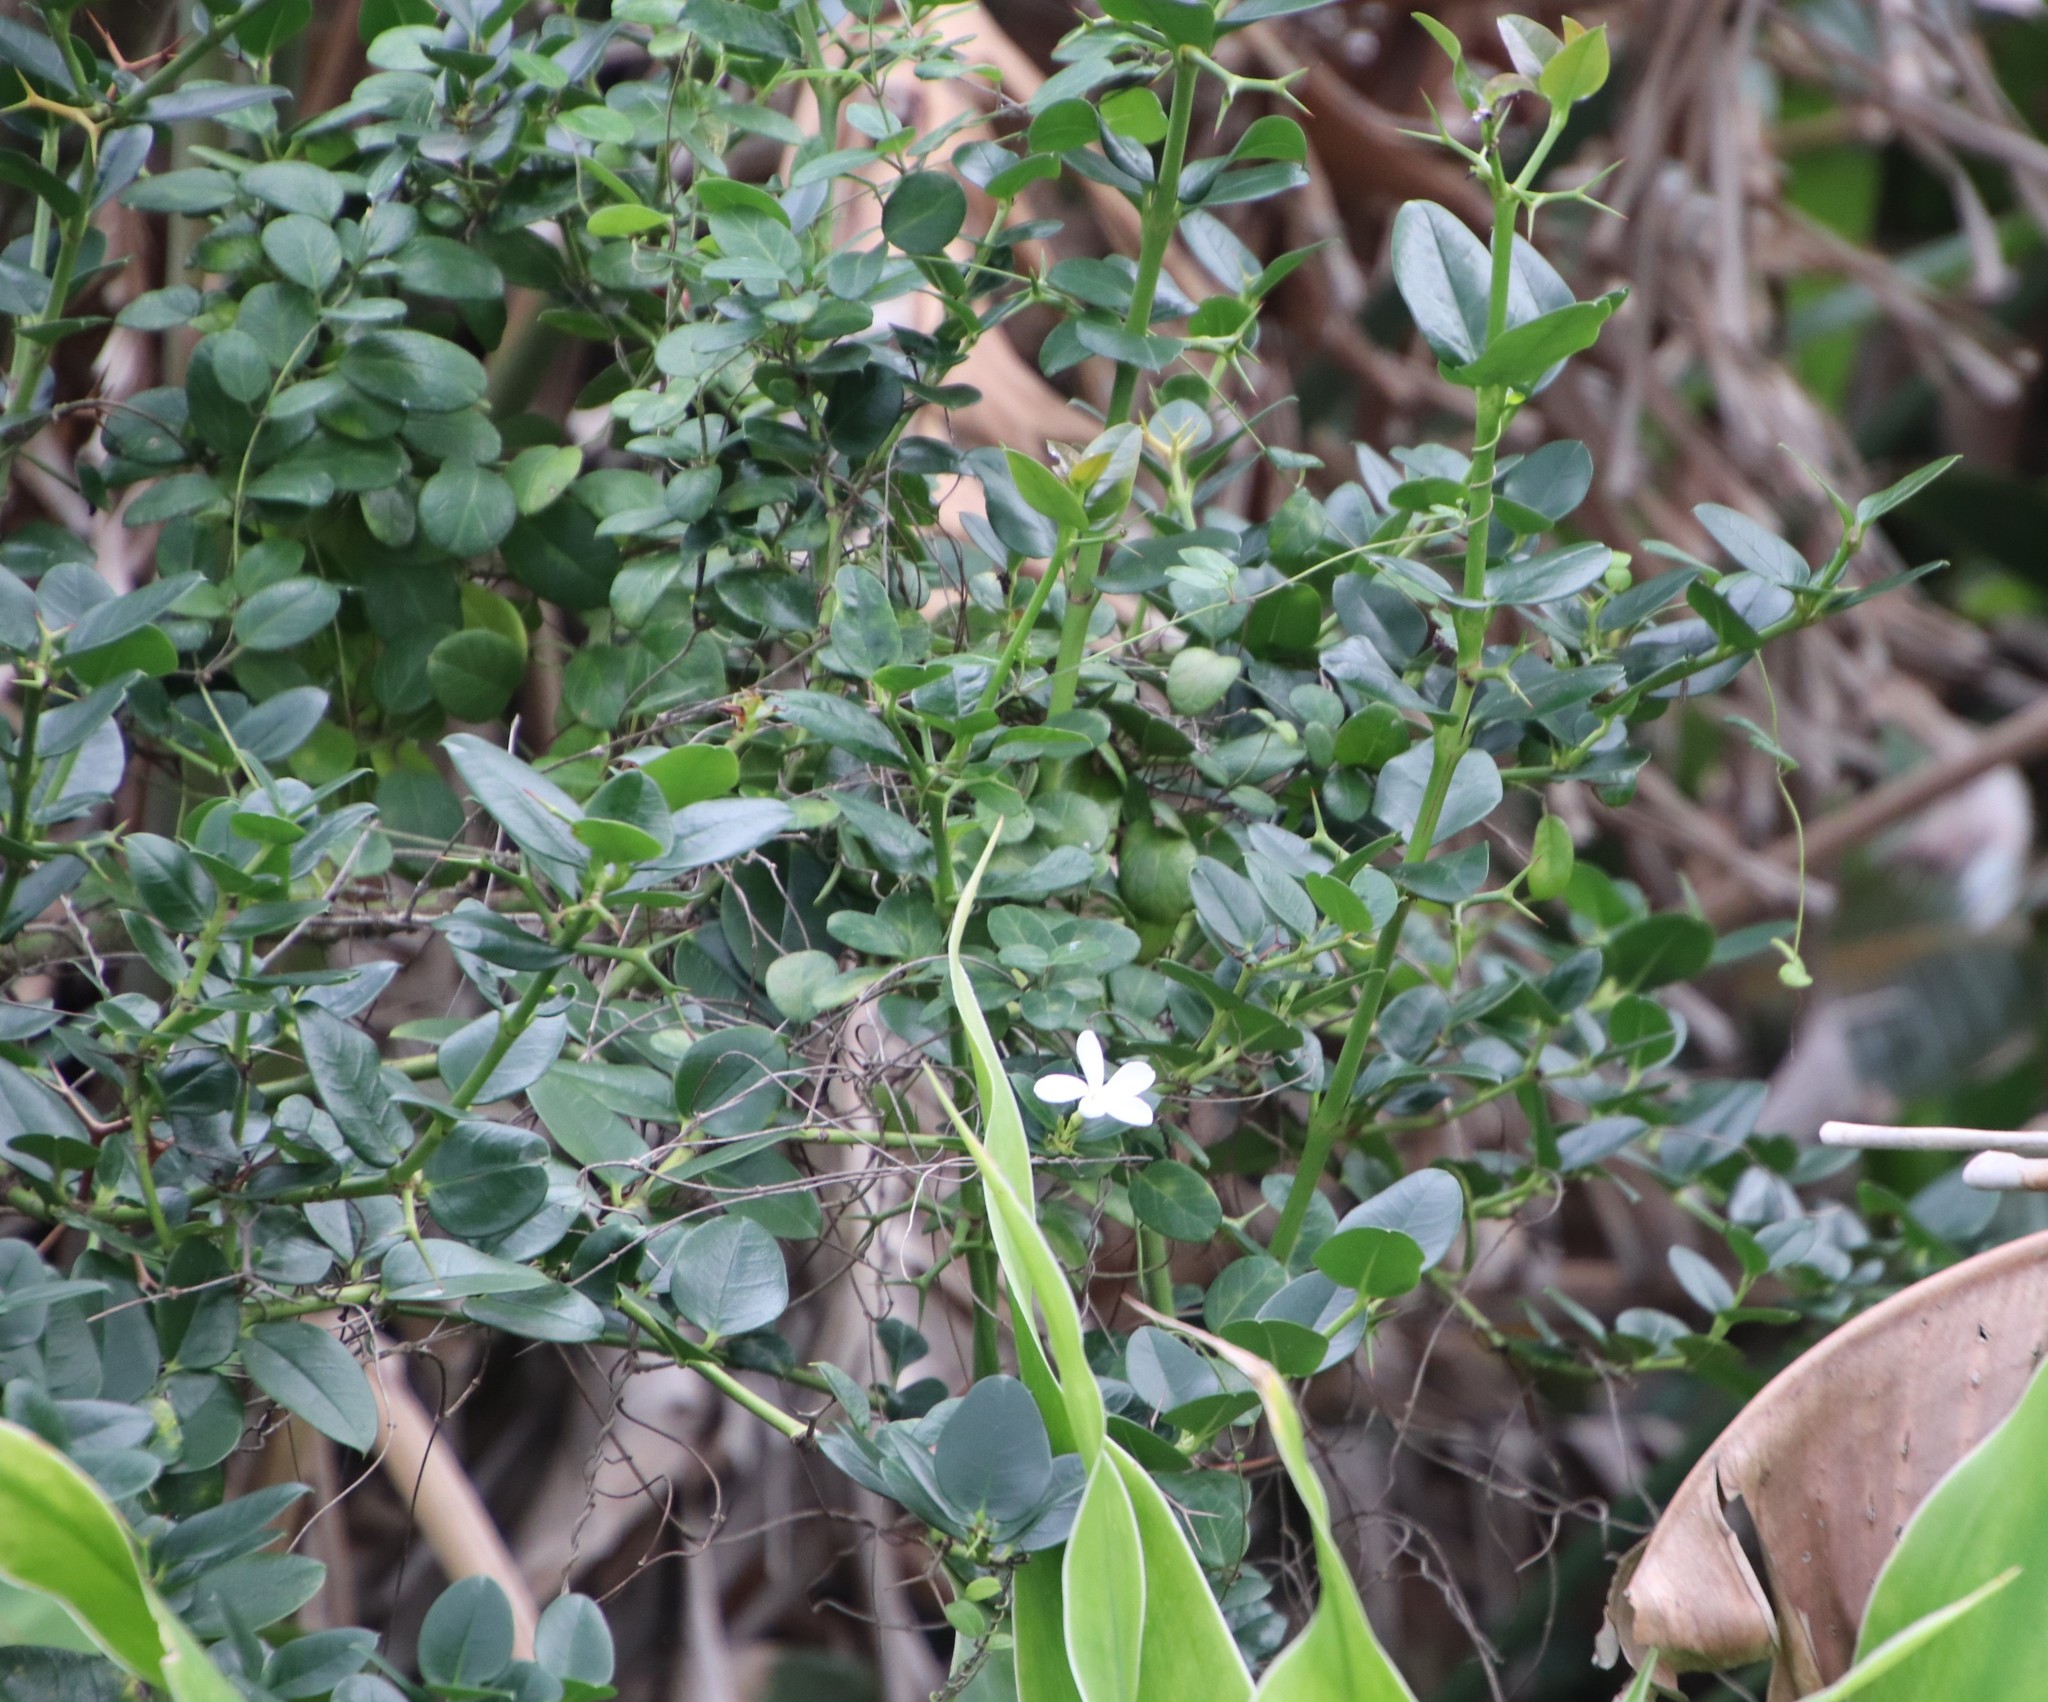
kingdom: Plantae
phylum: Tracheophyta
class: Magnoliopsida
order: Gentianales
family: Apocynaceae
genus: Carissa
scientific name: Carissa macrocarpa
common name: Natal plum
